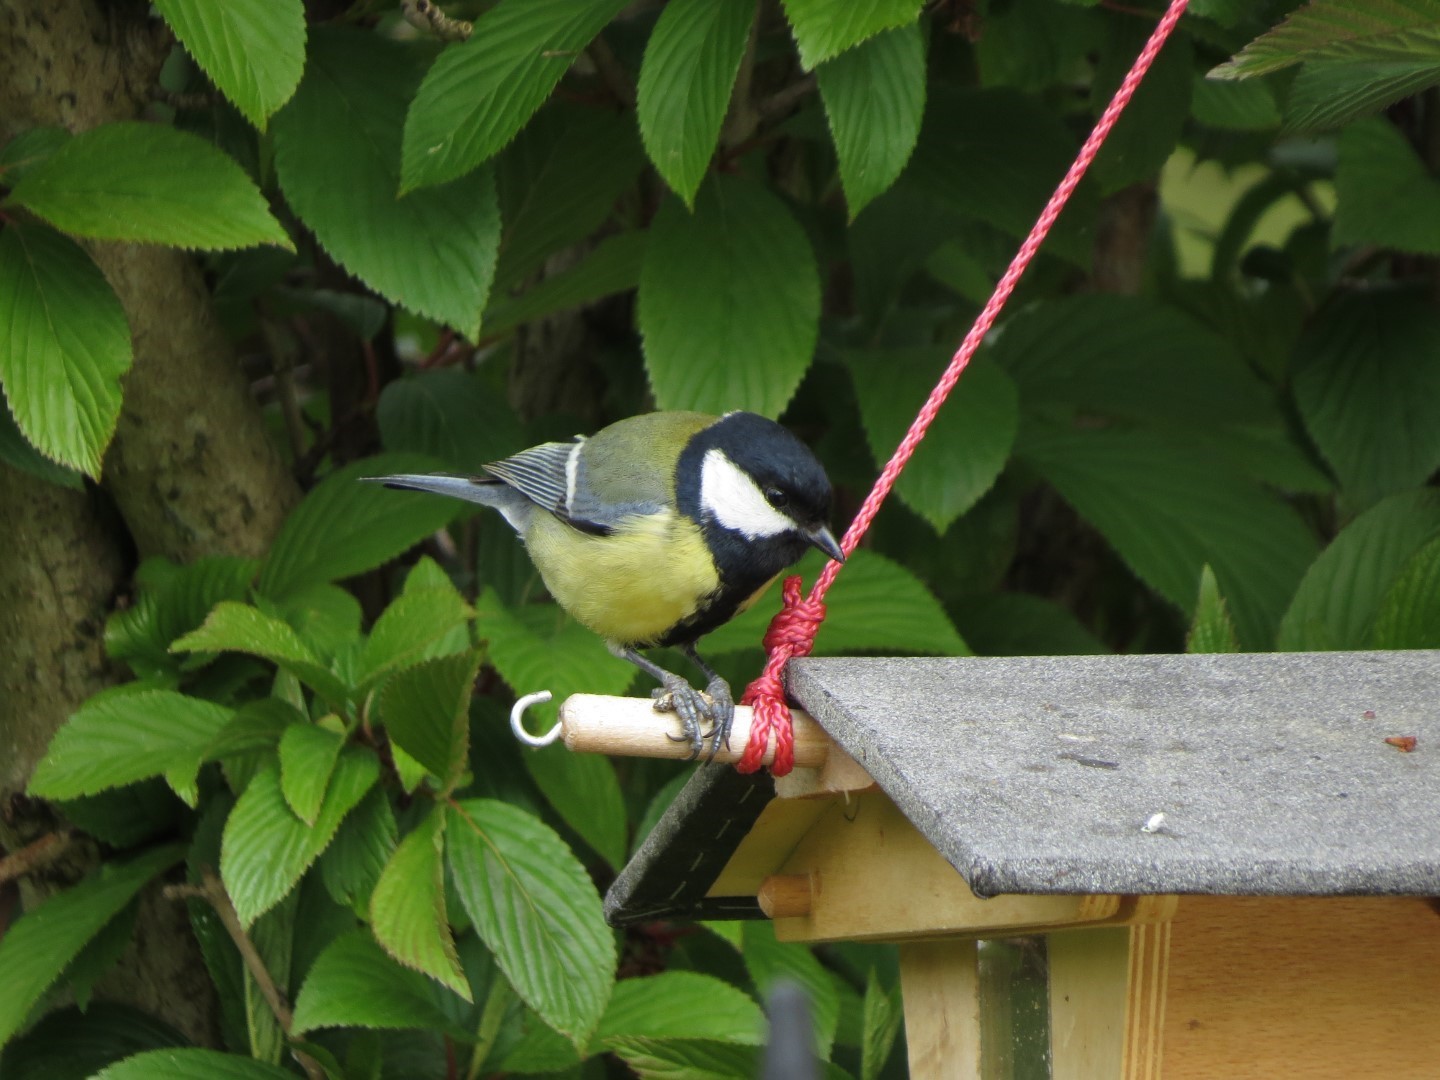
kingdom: Animalia
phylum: Chordata
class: Aves
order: Passeriformes
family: Paridae
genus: Parus
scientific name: Parus major
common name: Great tit
